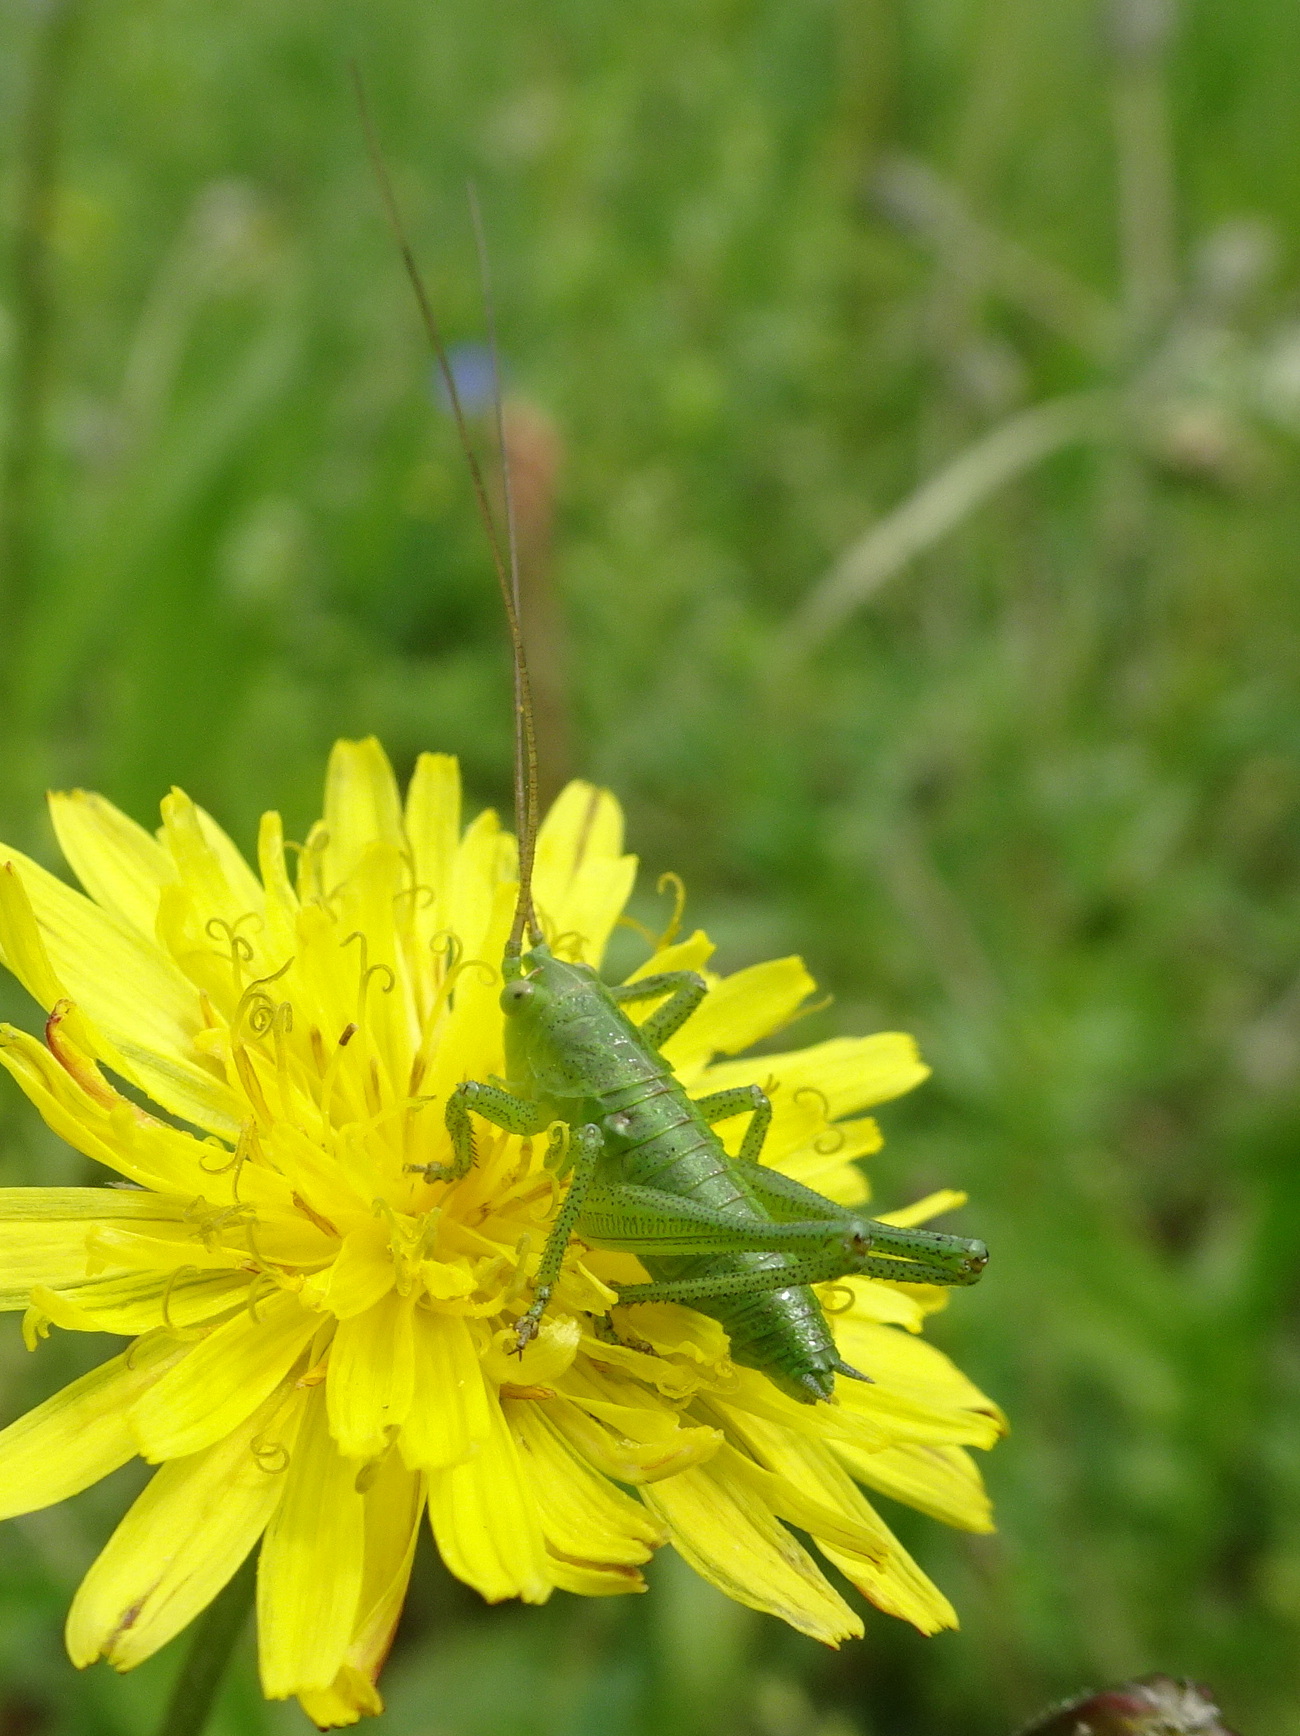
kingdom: Animalia
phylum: Arthropoda
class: Insecta
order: Orthoptera
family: Tettigoniidae
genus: Tettigonia
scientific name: Tettigonia viridissima
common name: Great green bush-cricket
